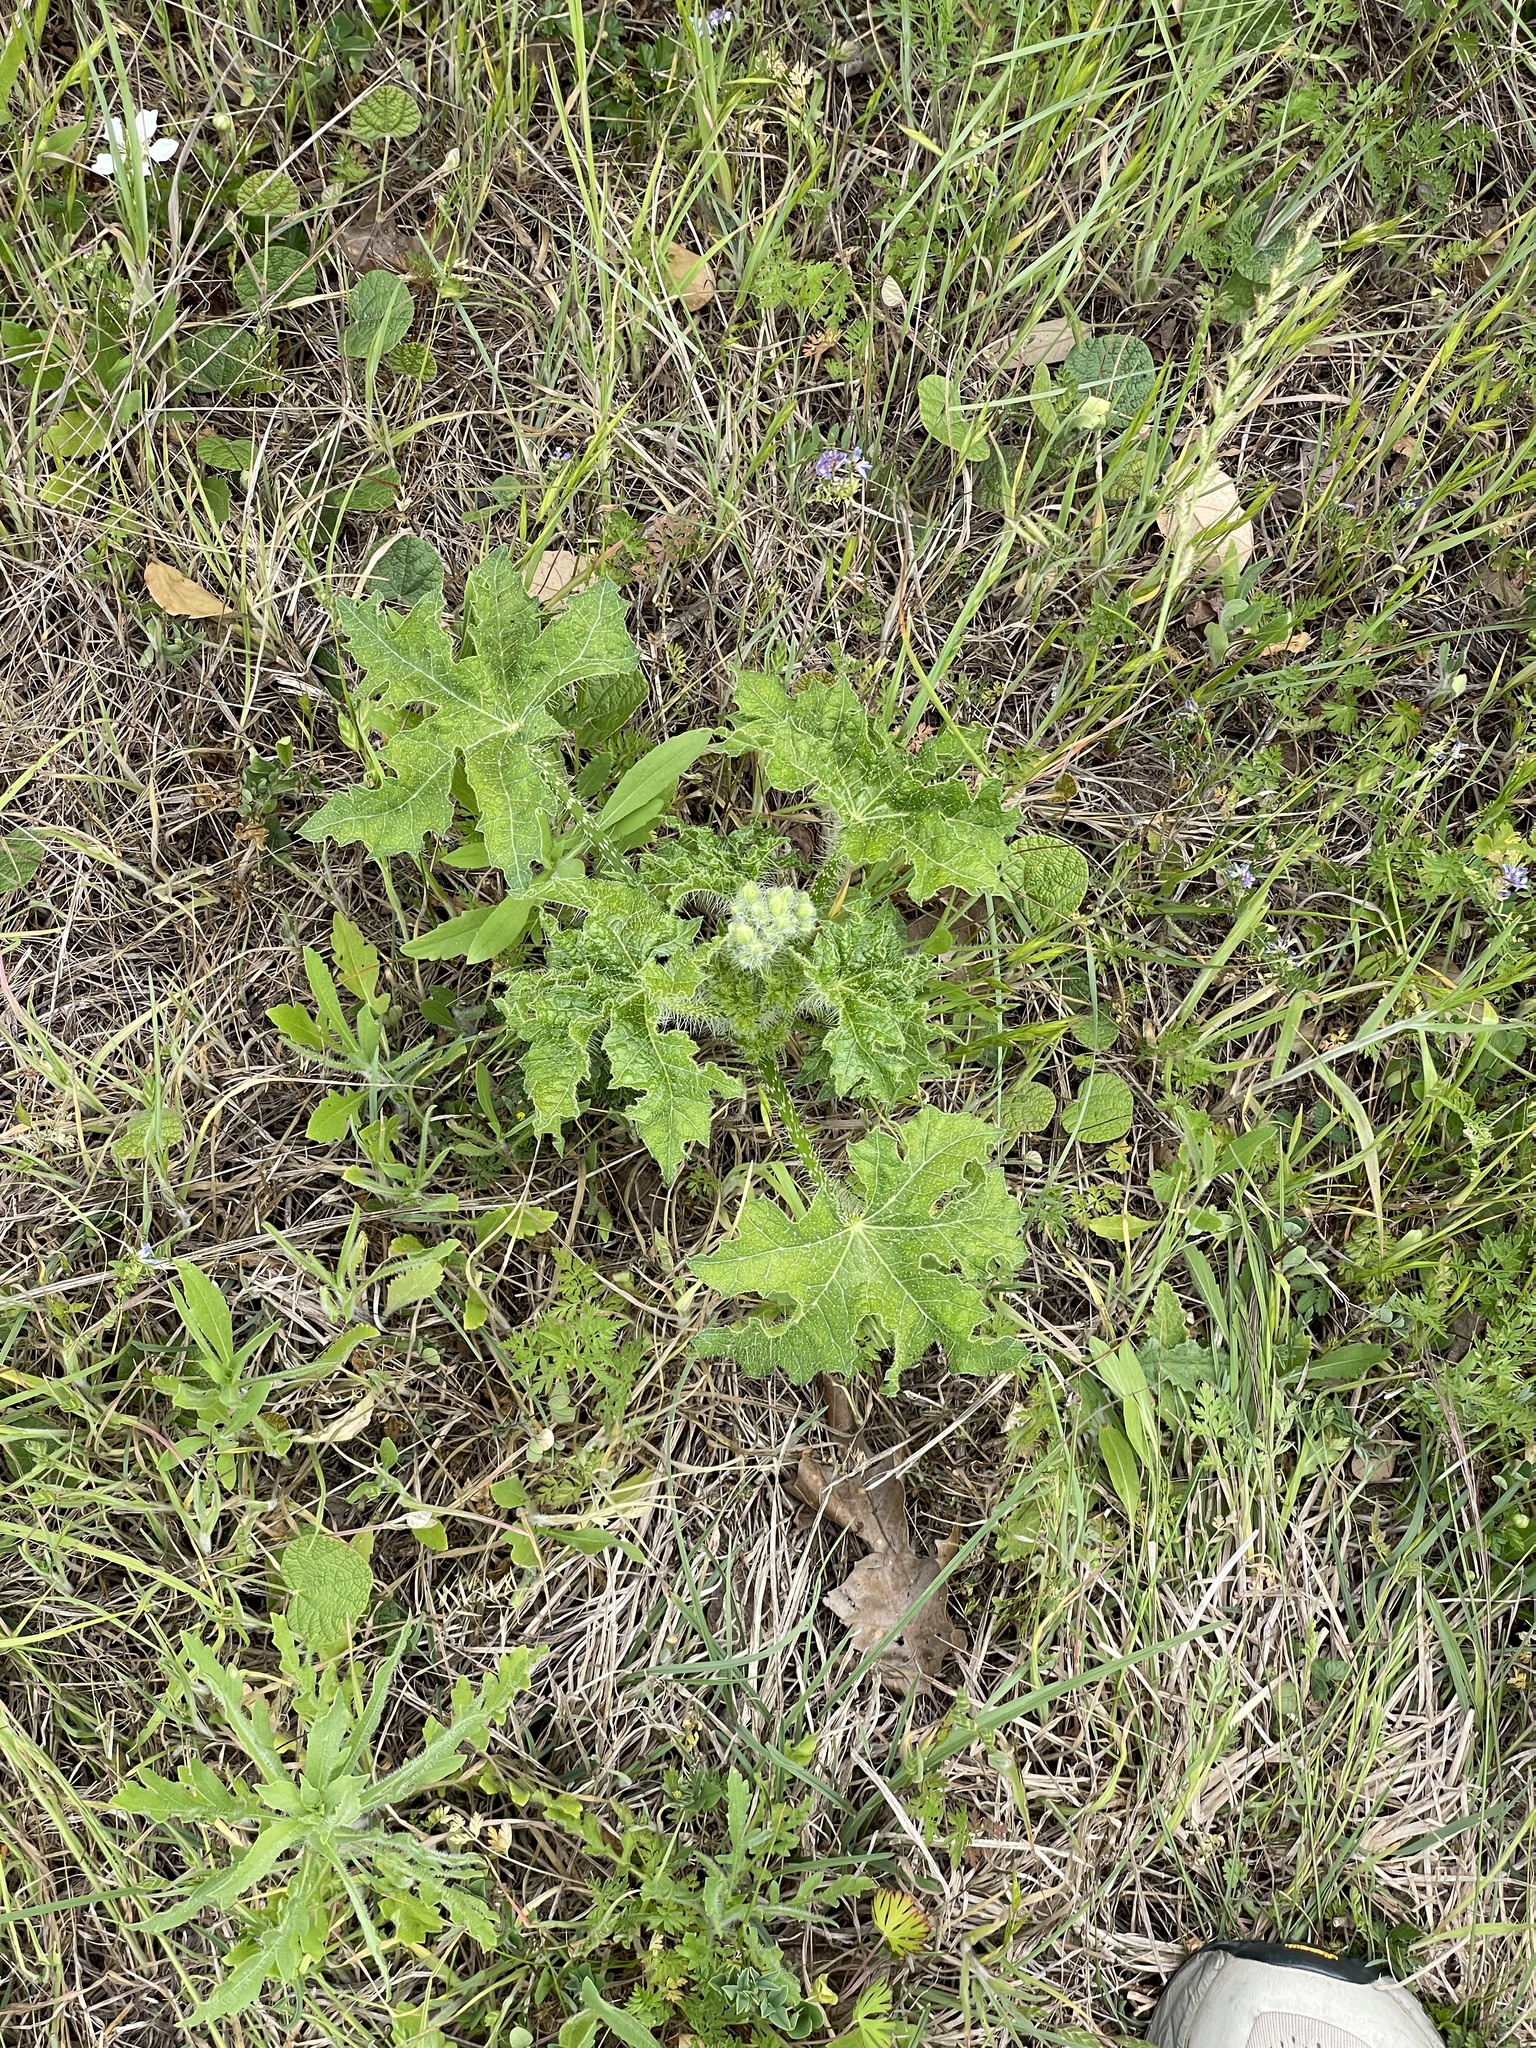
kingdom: Plantae
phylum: Tracheophyta
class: Magnoliopsida
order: Malpighiales
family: Euphorbiaceae
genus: Cnidoscolus
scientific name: Cnidoscolus texanus
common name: Texas bull-nettle
